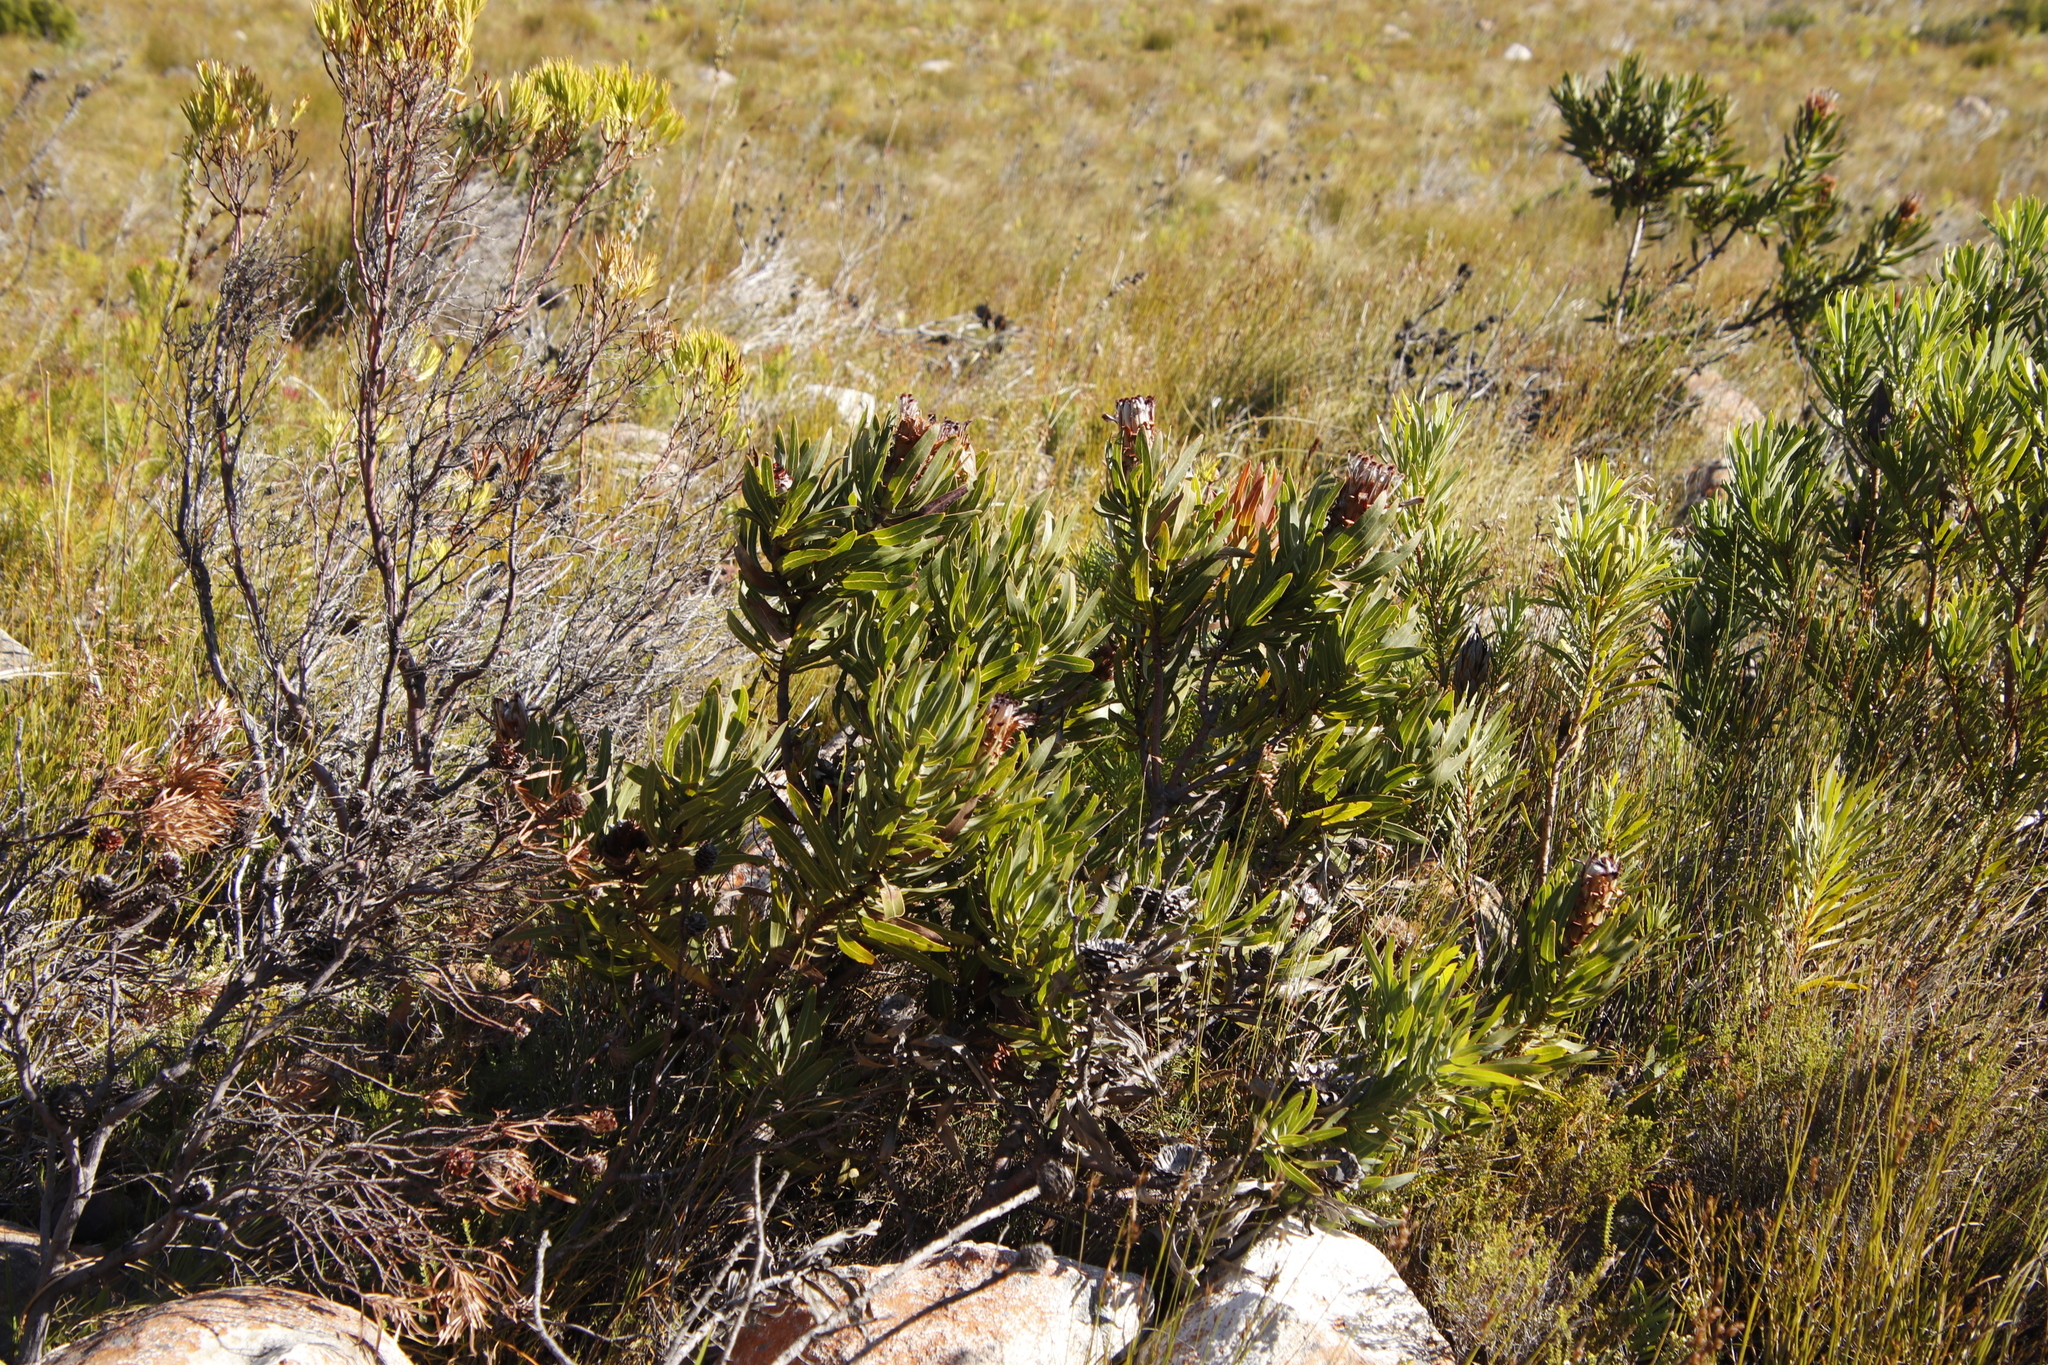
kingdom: Plantae
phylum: Tracheophyta
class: Magnoliopsida
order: Proteales
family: Proteaceae
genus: Protea
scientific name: Protea laurifolia
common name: Grey-leaf sugarbsh
